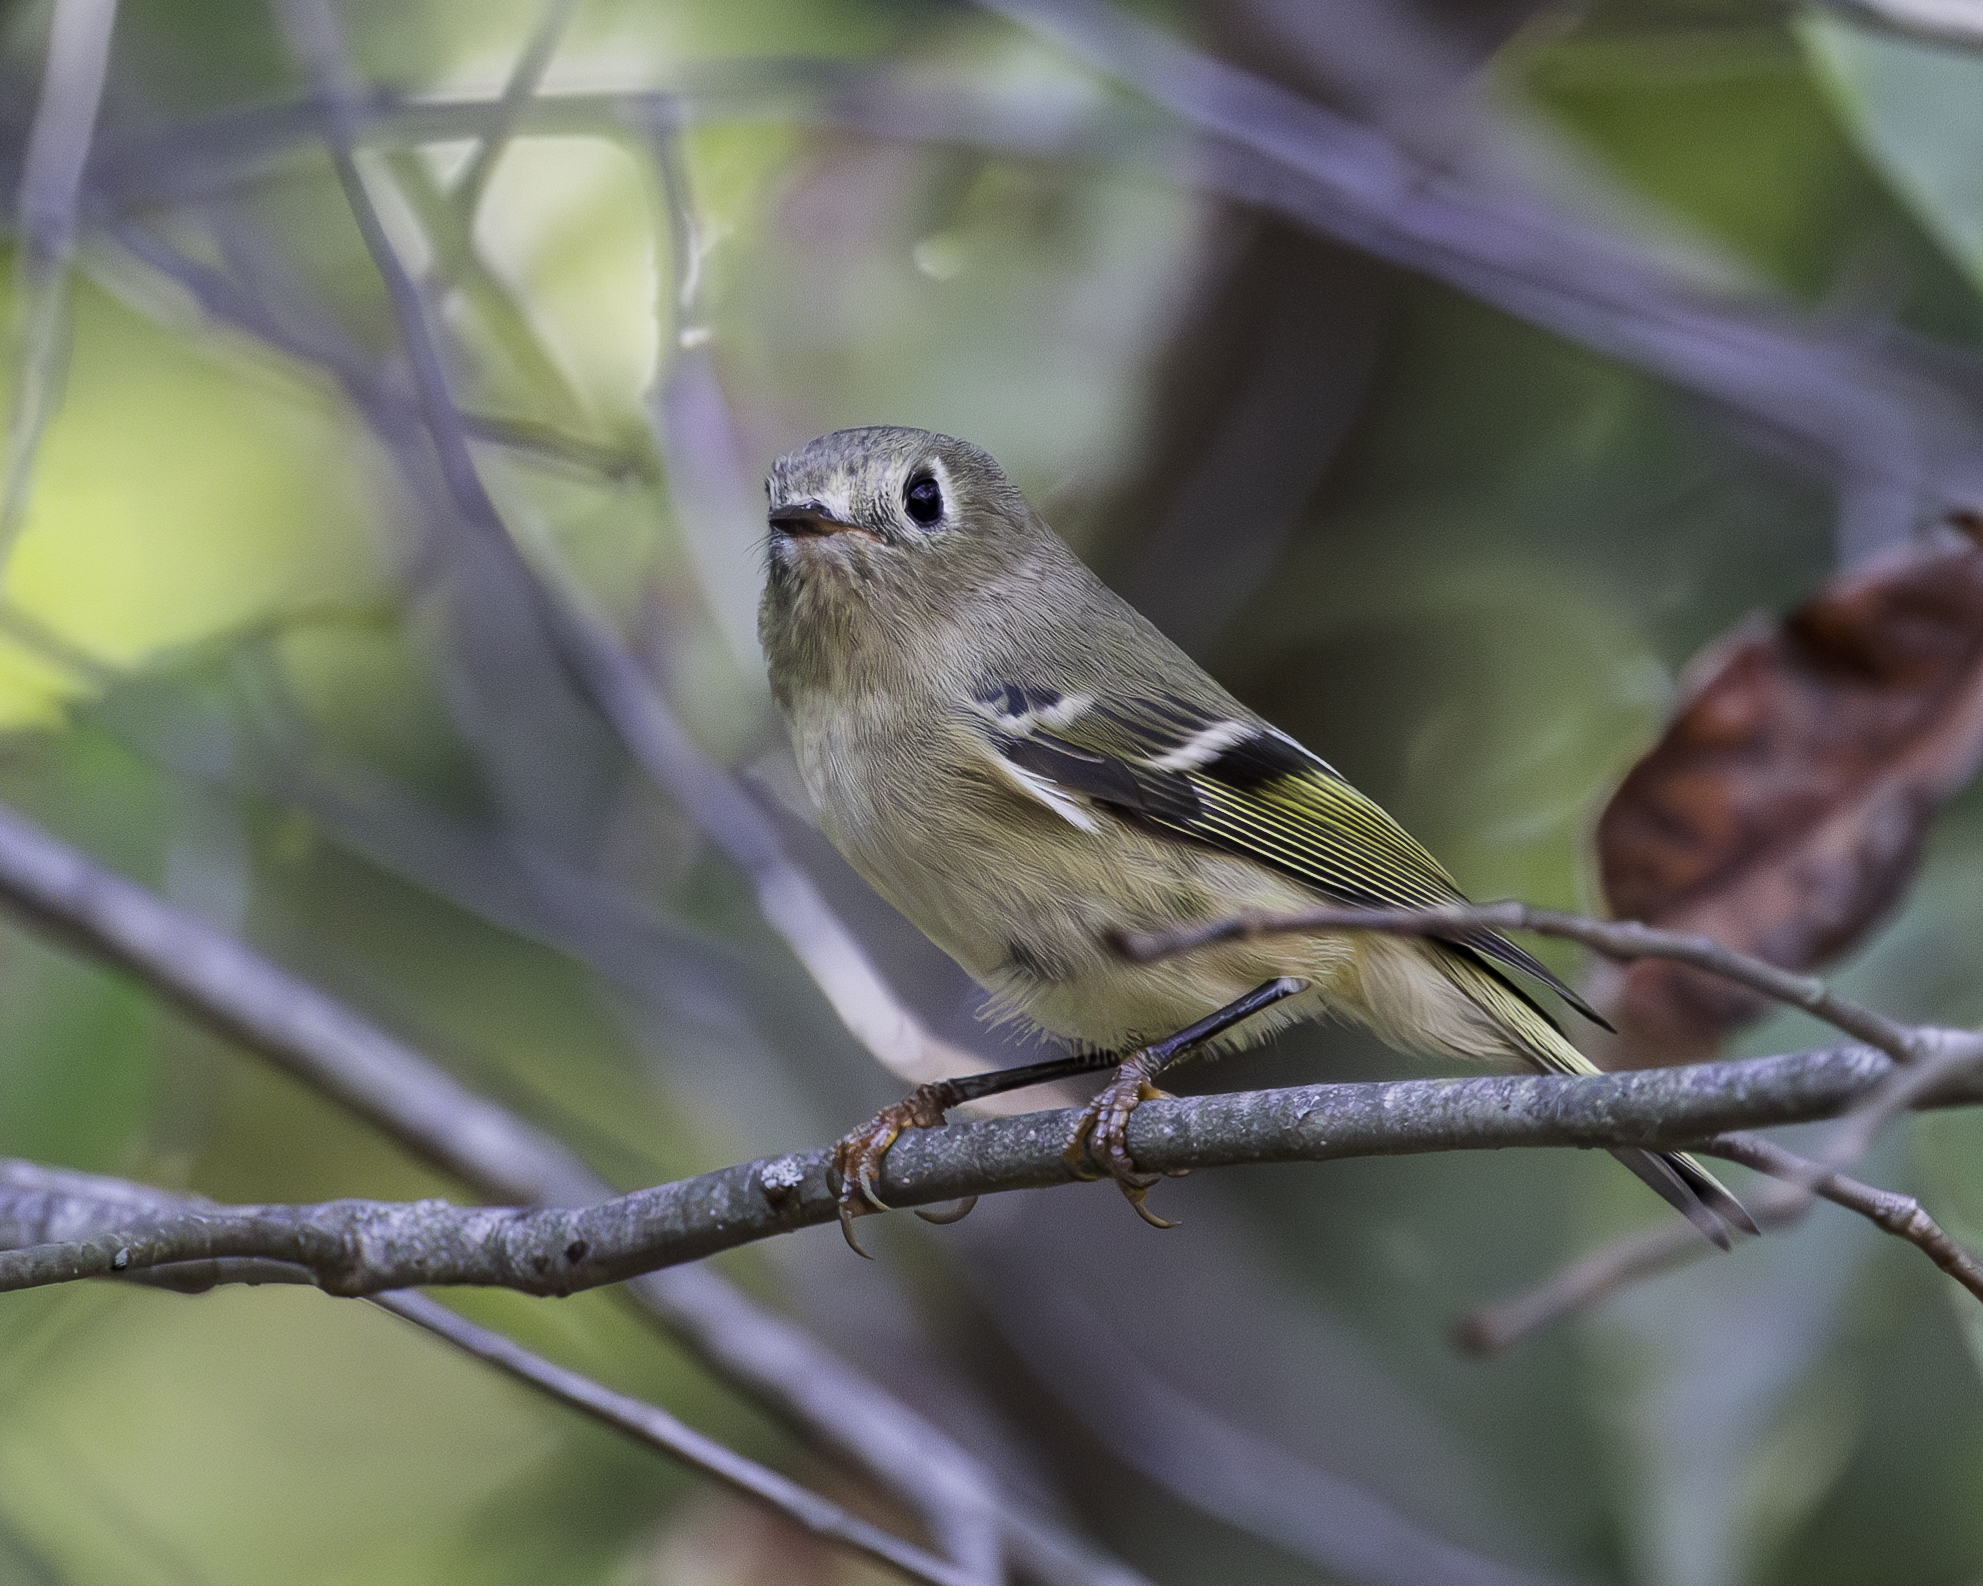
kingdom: Animalia
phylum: Chordata
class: Aves
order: Passeriformes
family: Regulidae
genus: Regulus
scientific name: Regulus calendula
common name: Ruby-crowned kinglet
